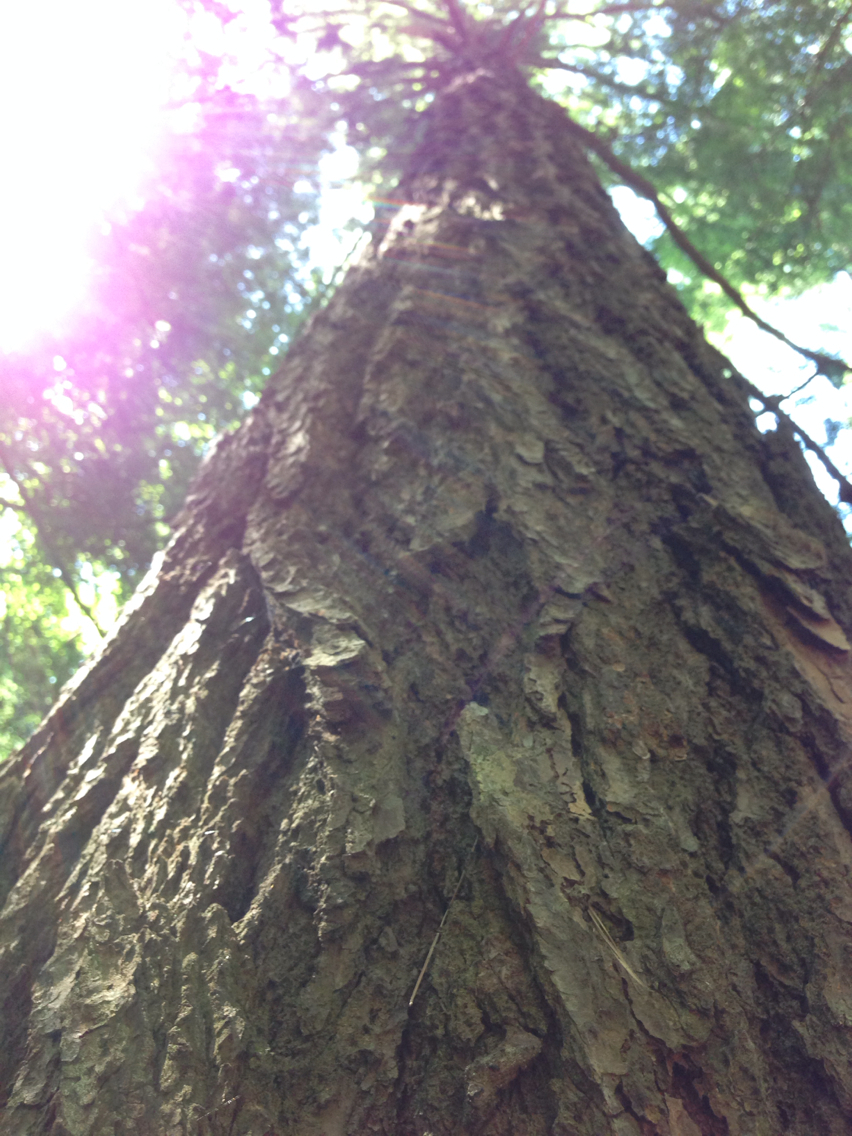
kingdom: Plantae
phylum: Tracheophyta
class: Pinopsida
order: Pinales
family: Pinaceae
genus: Tsuga
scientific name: Tsuga canadensis
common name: Eastern hemlock
